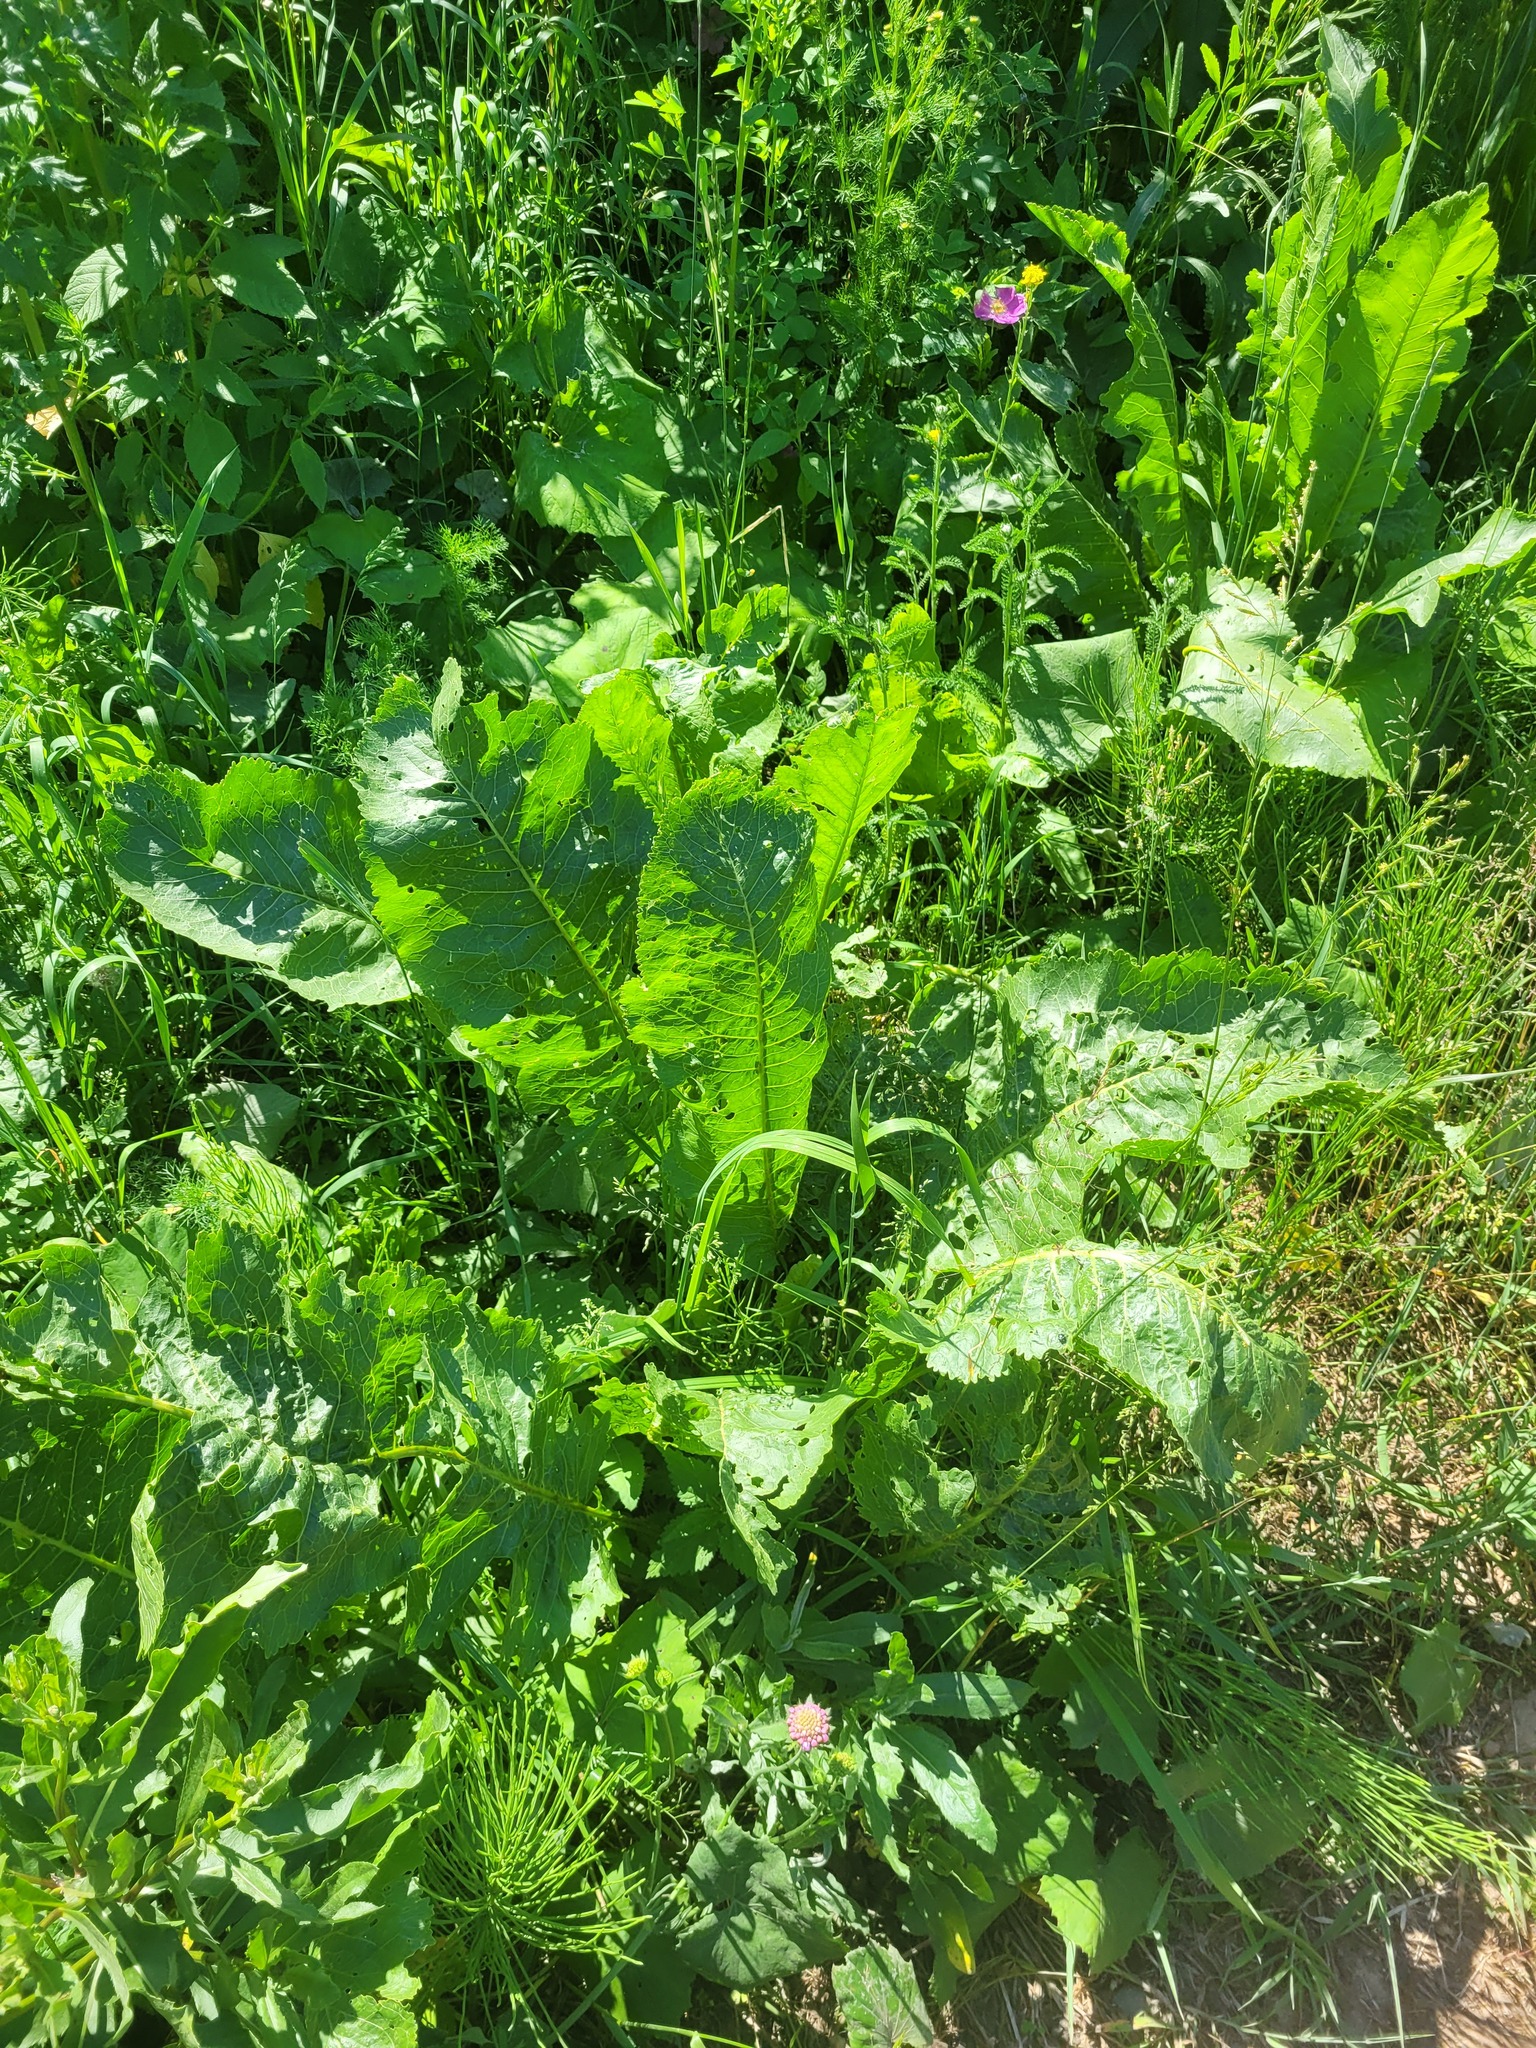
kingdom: Plantae
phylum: Tracheophyta
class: Magnoliopsida
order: Brassicales
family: Brassicaceae
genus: Armoracia
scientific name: Armoracia rusticana
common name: Horseradish
